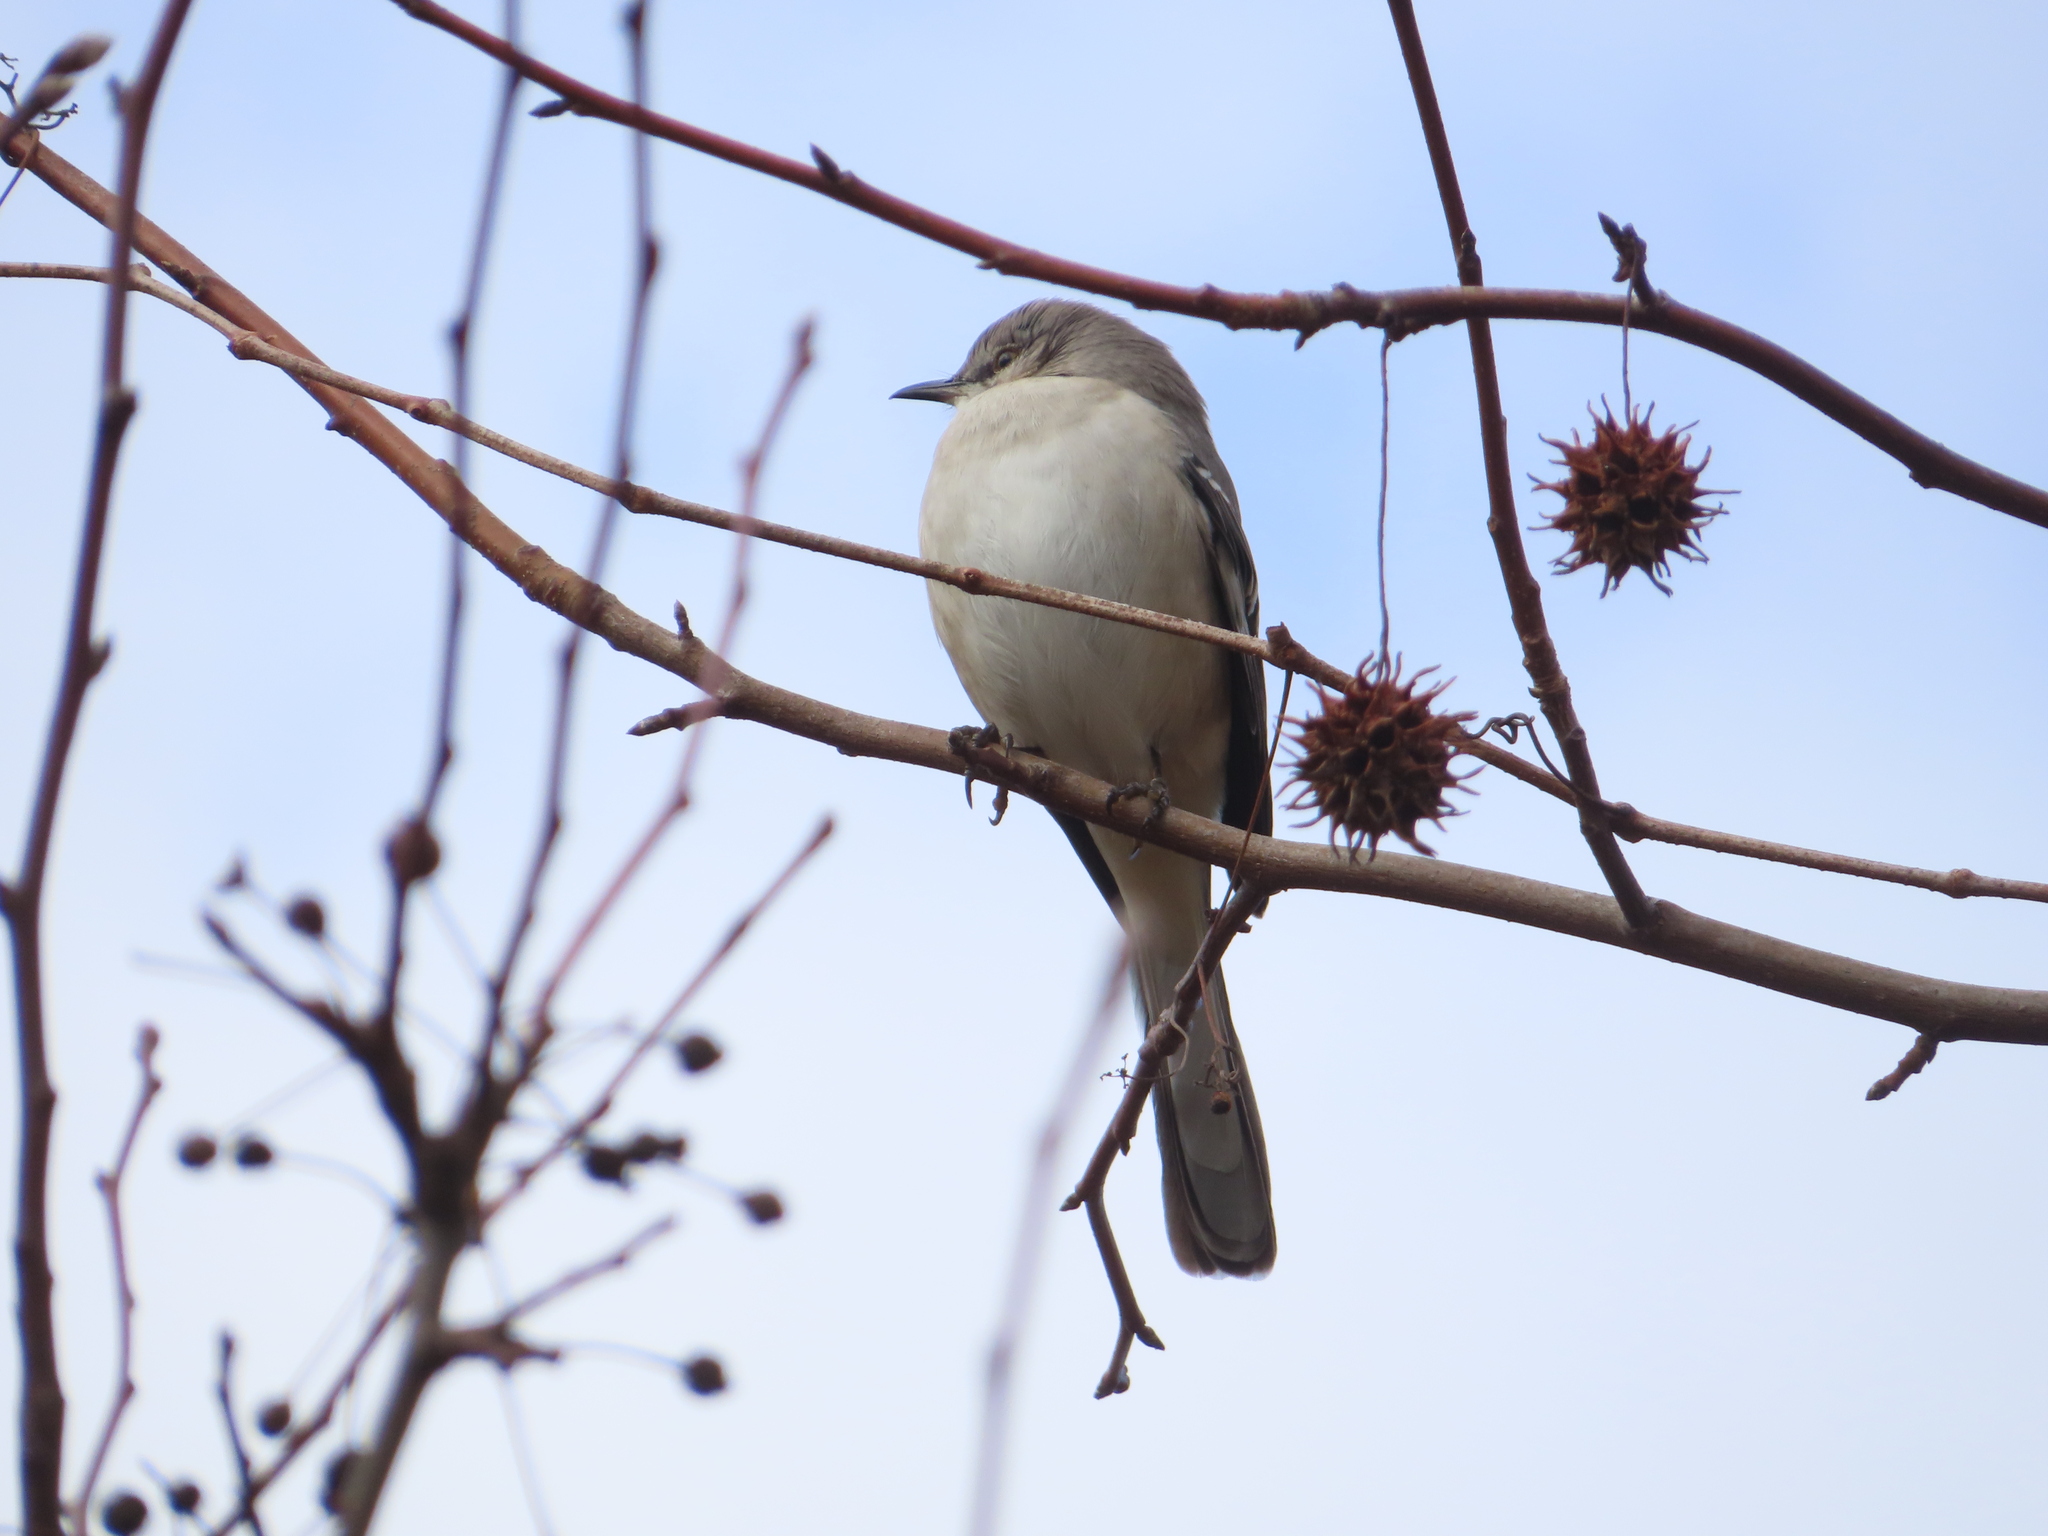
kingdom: Animalia
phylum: Chordata
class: Aves
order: Passeriformes
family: Mimidae
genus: Mimus
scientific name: Mimus polyglottos
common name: Northern mockingbird
